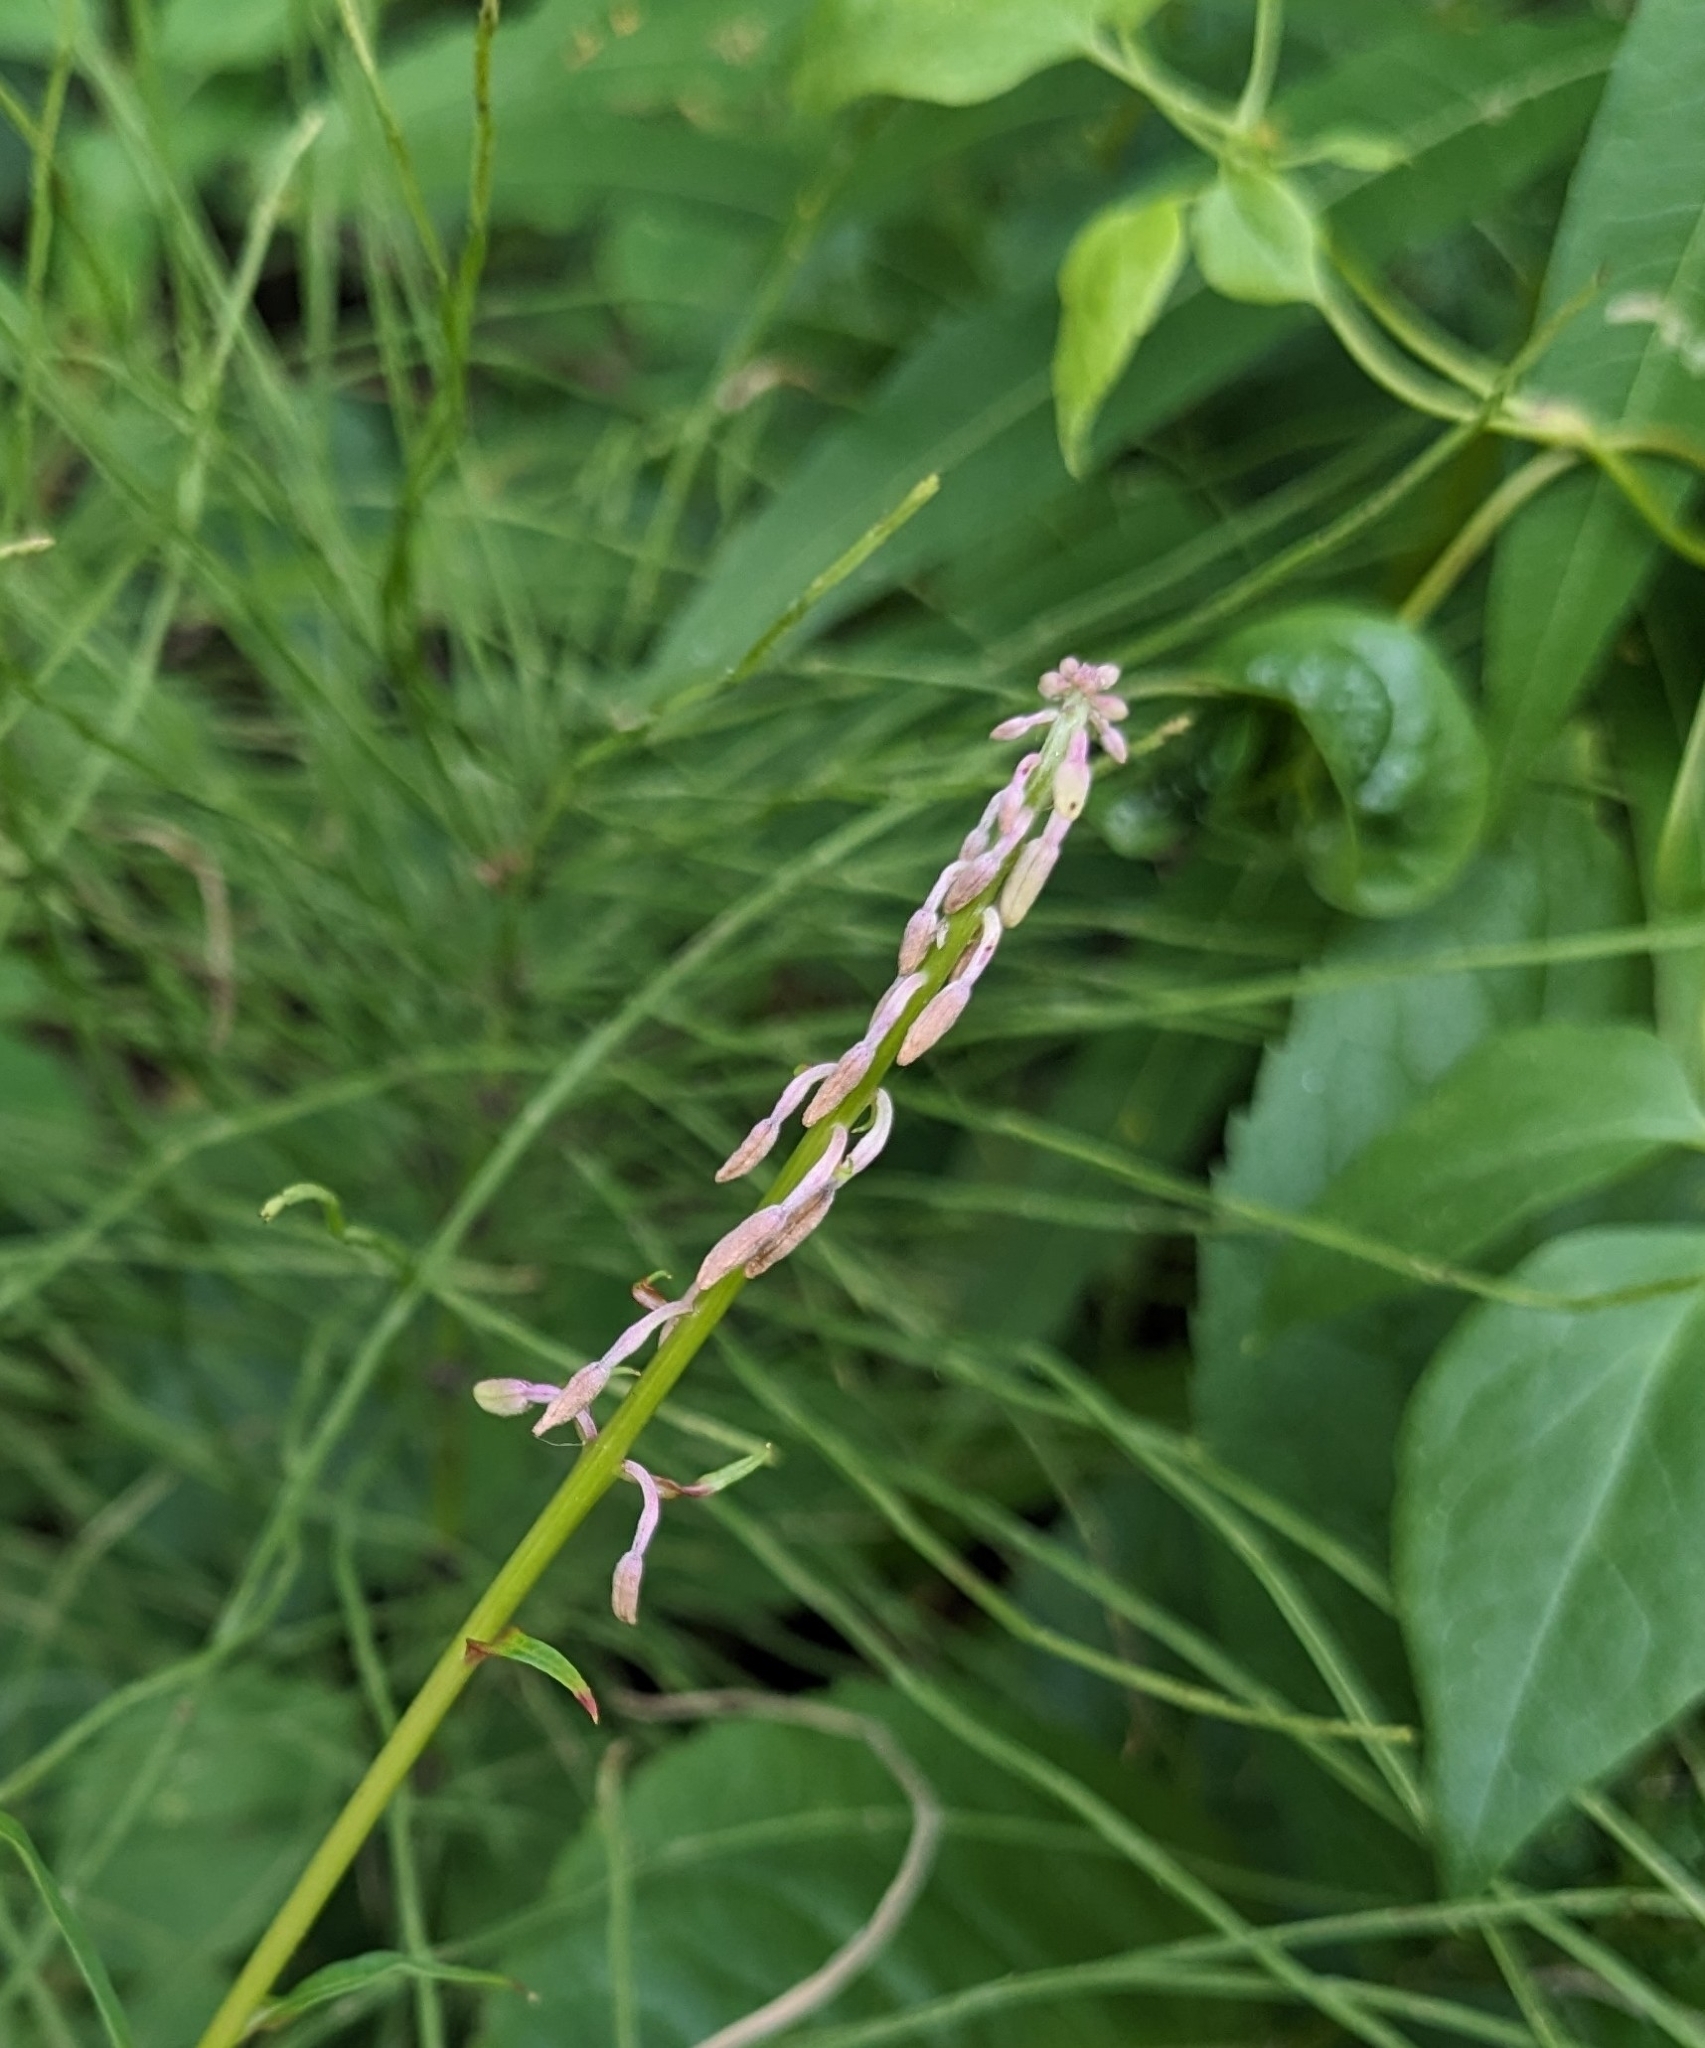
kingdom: Plantae
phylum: Tracheophyta
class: Magnoliopsida
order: Myrtales
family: Onagraceae
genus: Chamaenerion
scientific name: Chamaenerion angustifolium
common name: Fireweed
